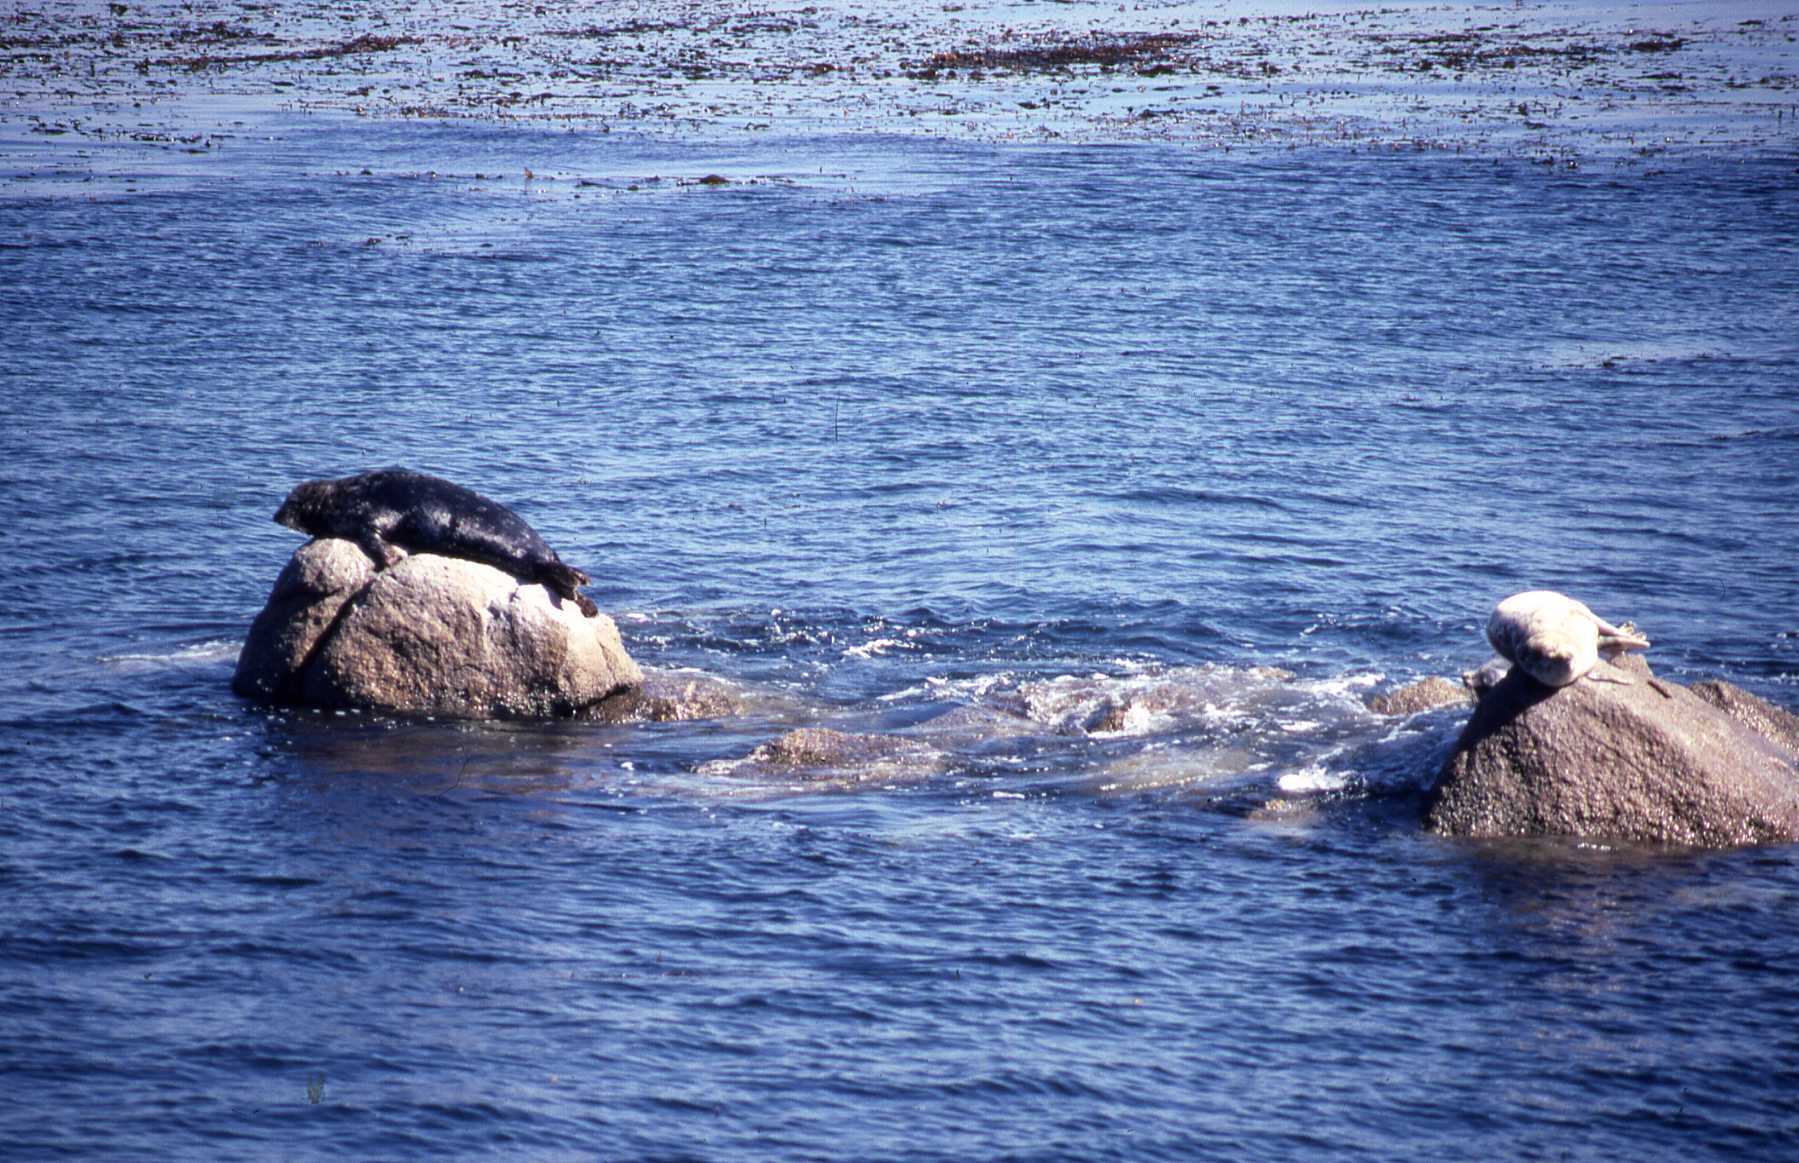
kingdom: Animalia
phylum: Chordata
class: Mammalia
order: Carnivora
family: Phocidae
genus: Phoca
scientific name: Phoca vitulina
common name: Harbor seal
